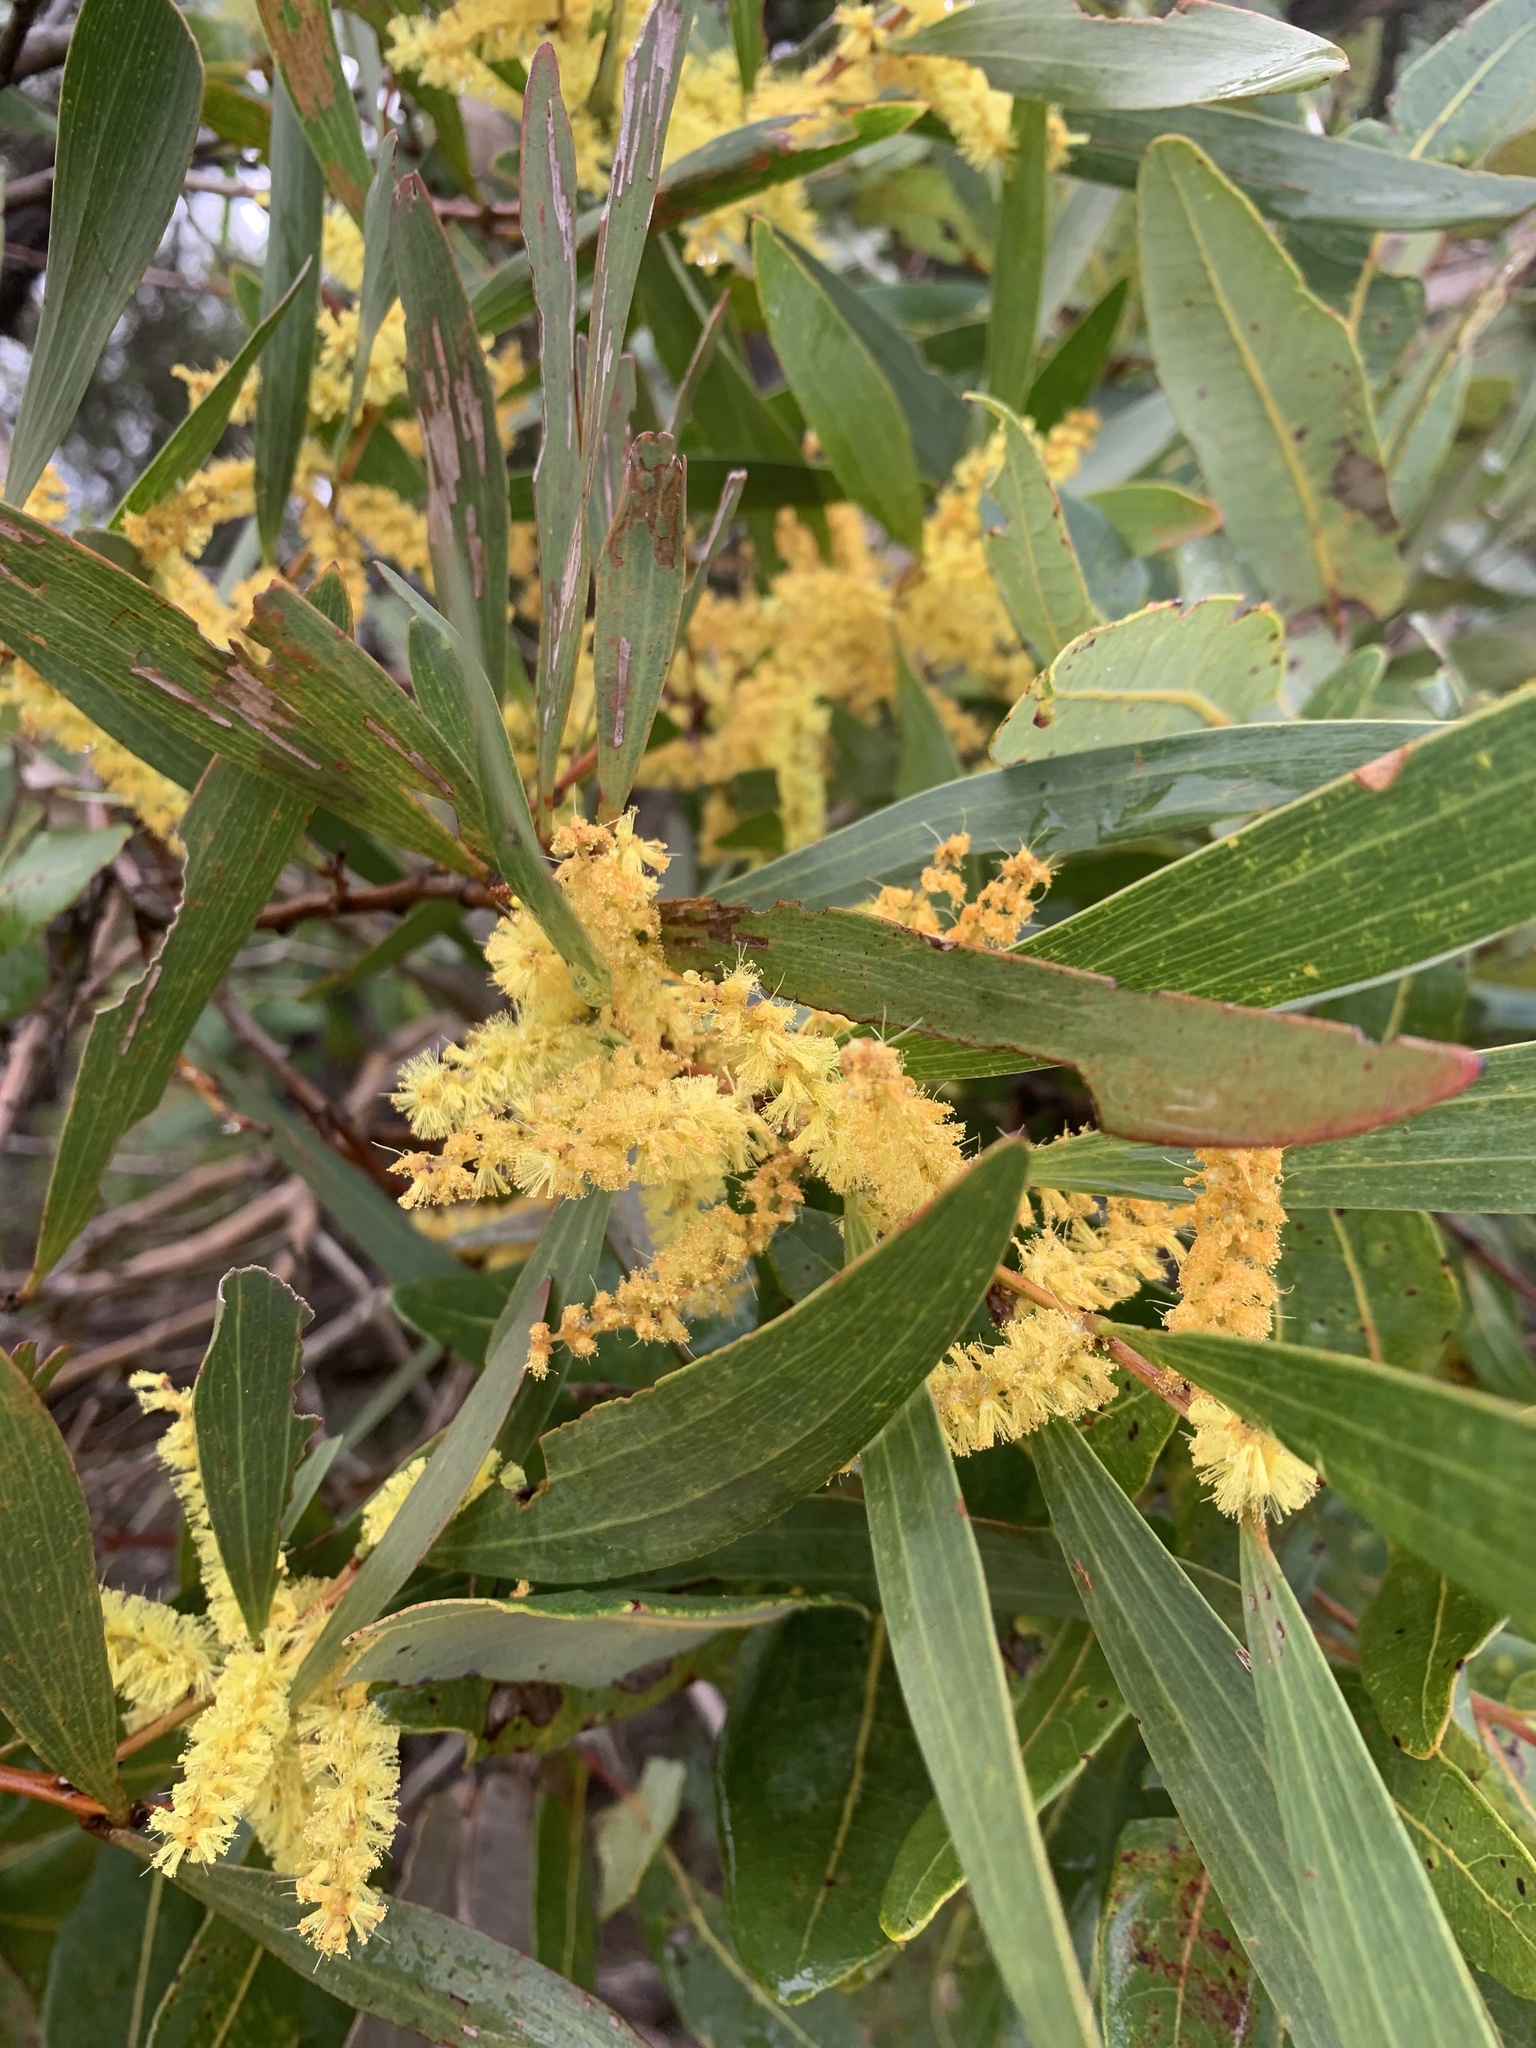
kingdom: Plantae
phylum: Tracheophyta
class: Magnoliopsida
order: Fabales
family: Fabaceae
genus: Acacia
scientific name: Acacia longifolia
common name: Sydney golden wattle
